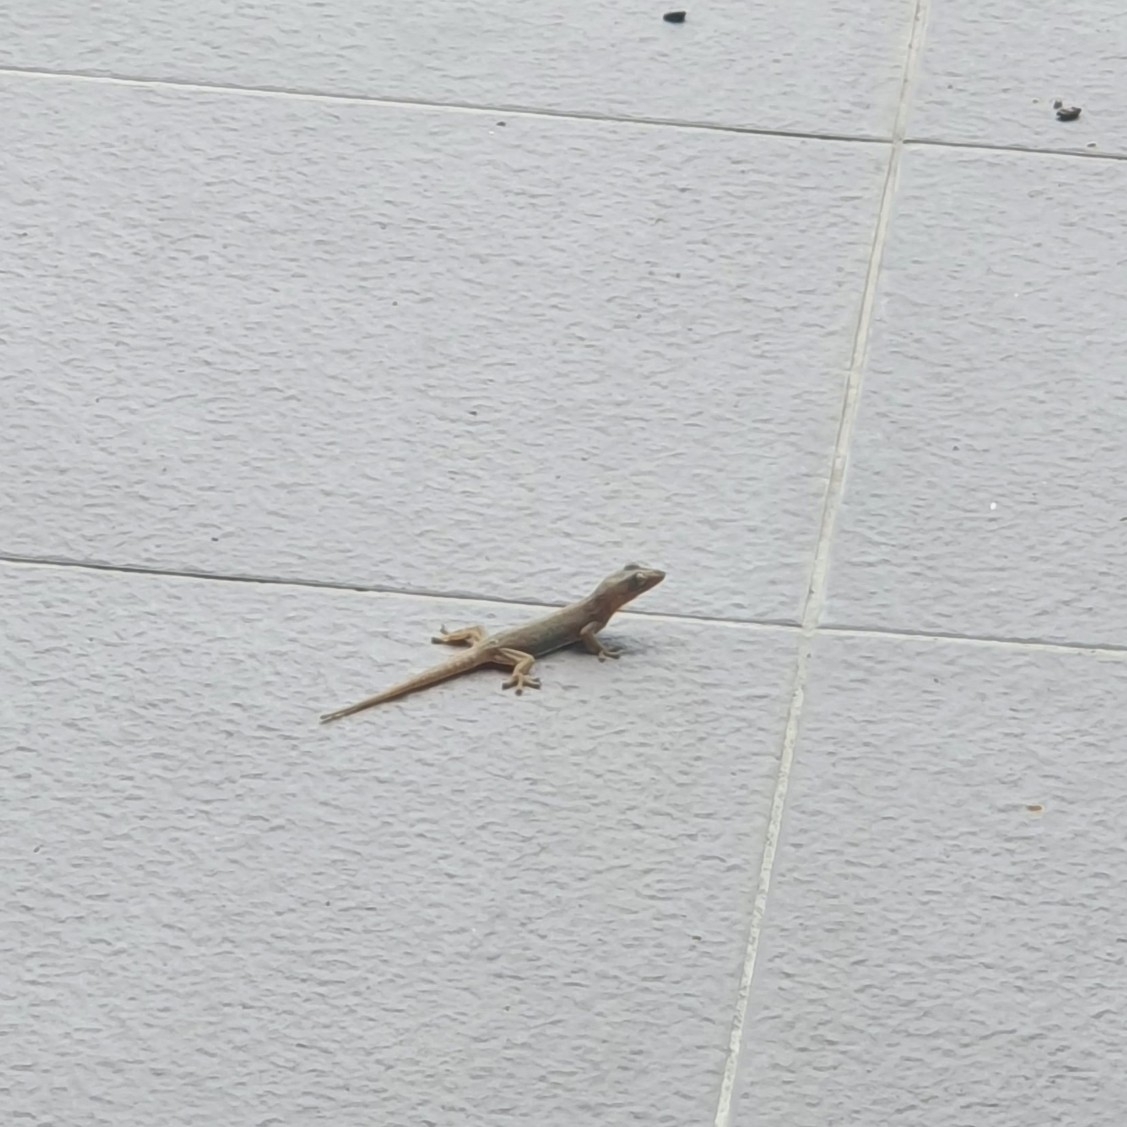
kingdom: Animalia
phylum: Chordata
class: Squamata
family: Gekkonidae
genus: Hemidactylus
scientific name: Hemidactylus platyurus
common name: Flat-tailed house gecko
